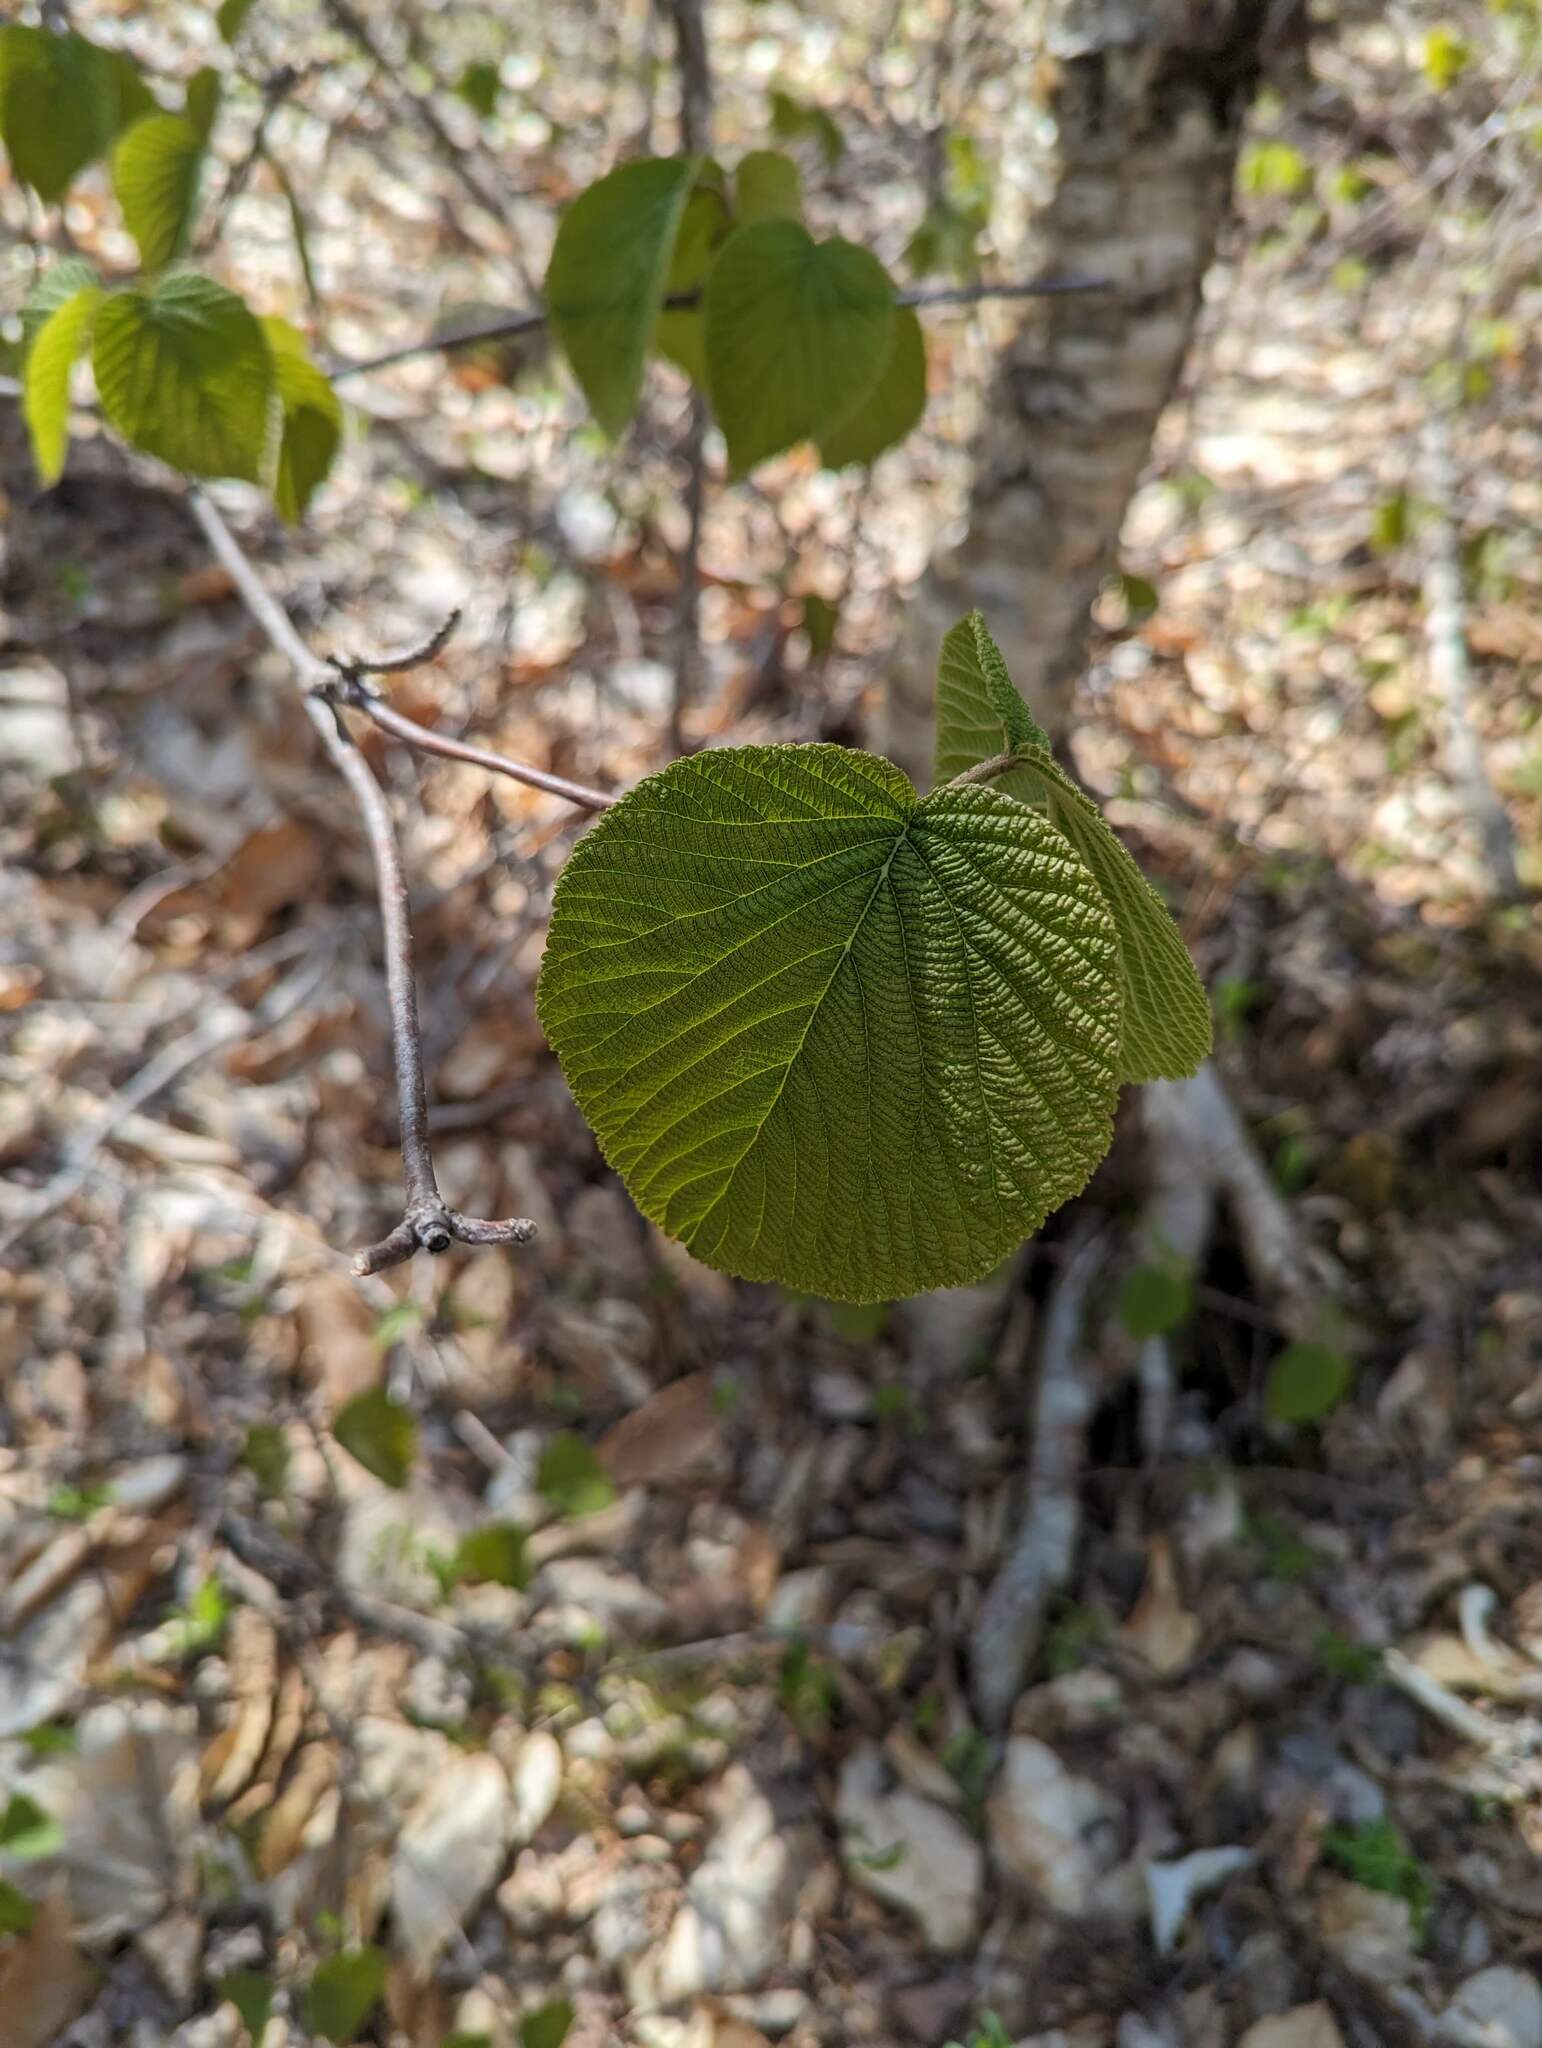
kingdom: Plantae
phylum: Tracheophyta
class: Magnoliopsida
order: Dipsacales
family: Viburnaceae
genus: Viburnum
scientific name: Viburnum lantanoides
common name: Hobblebush
